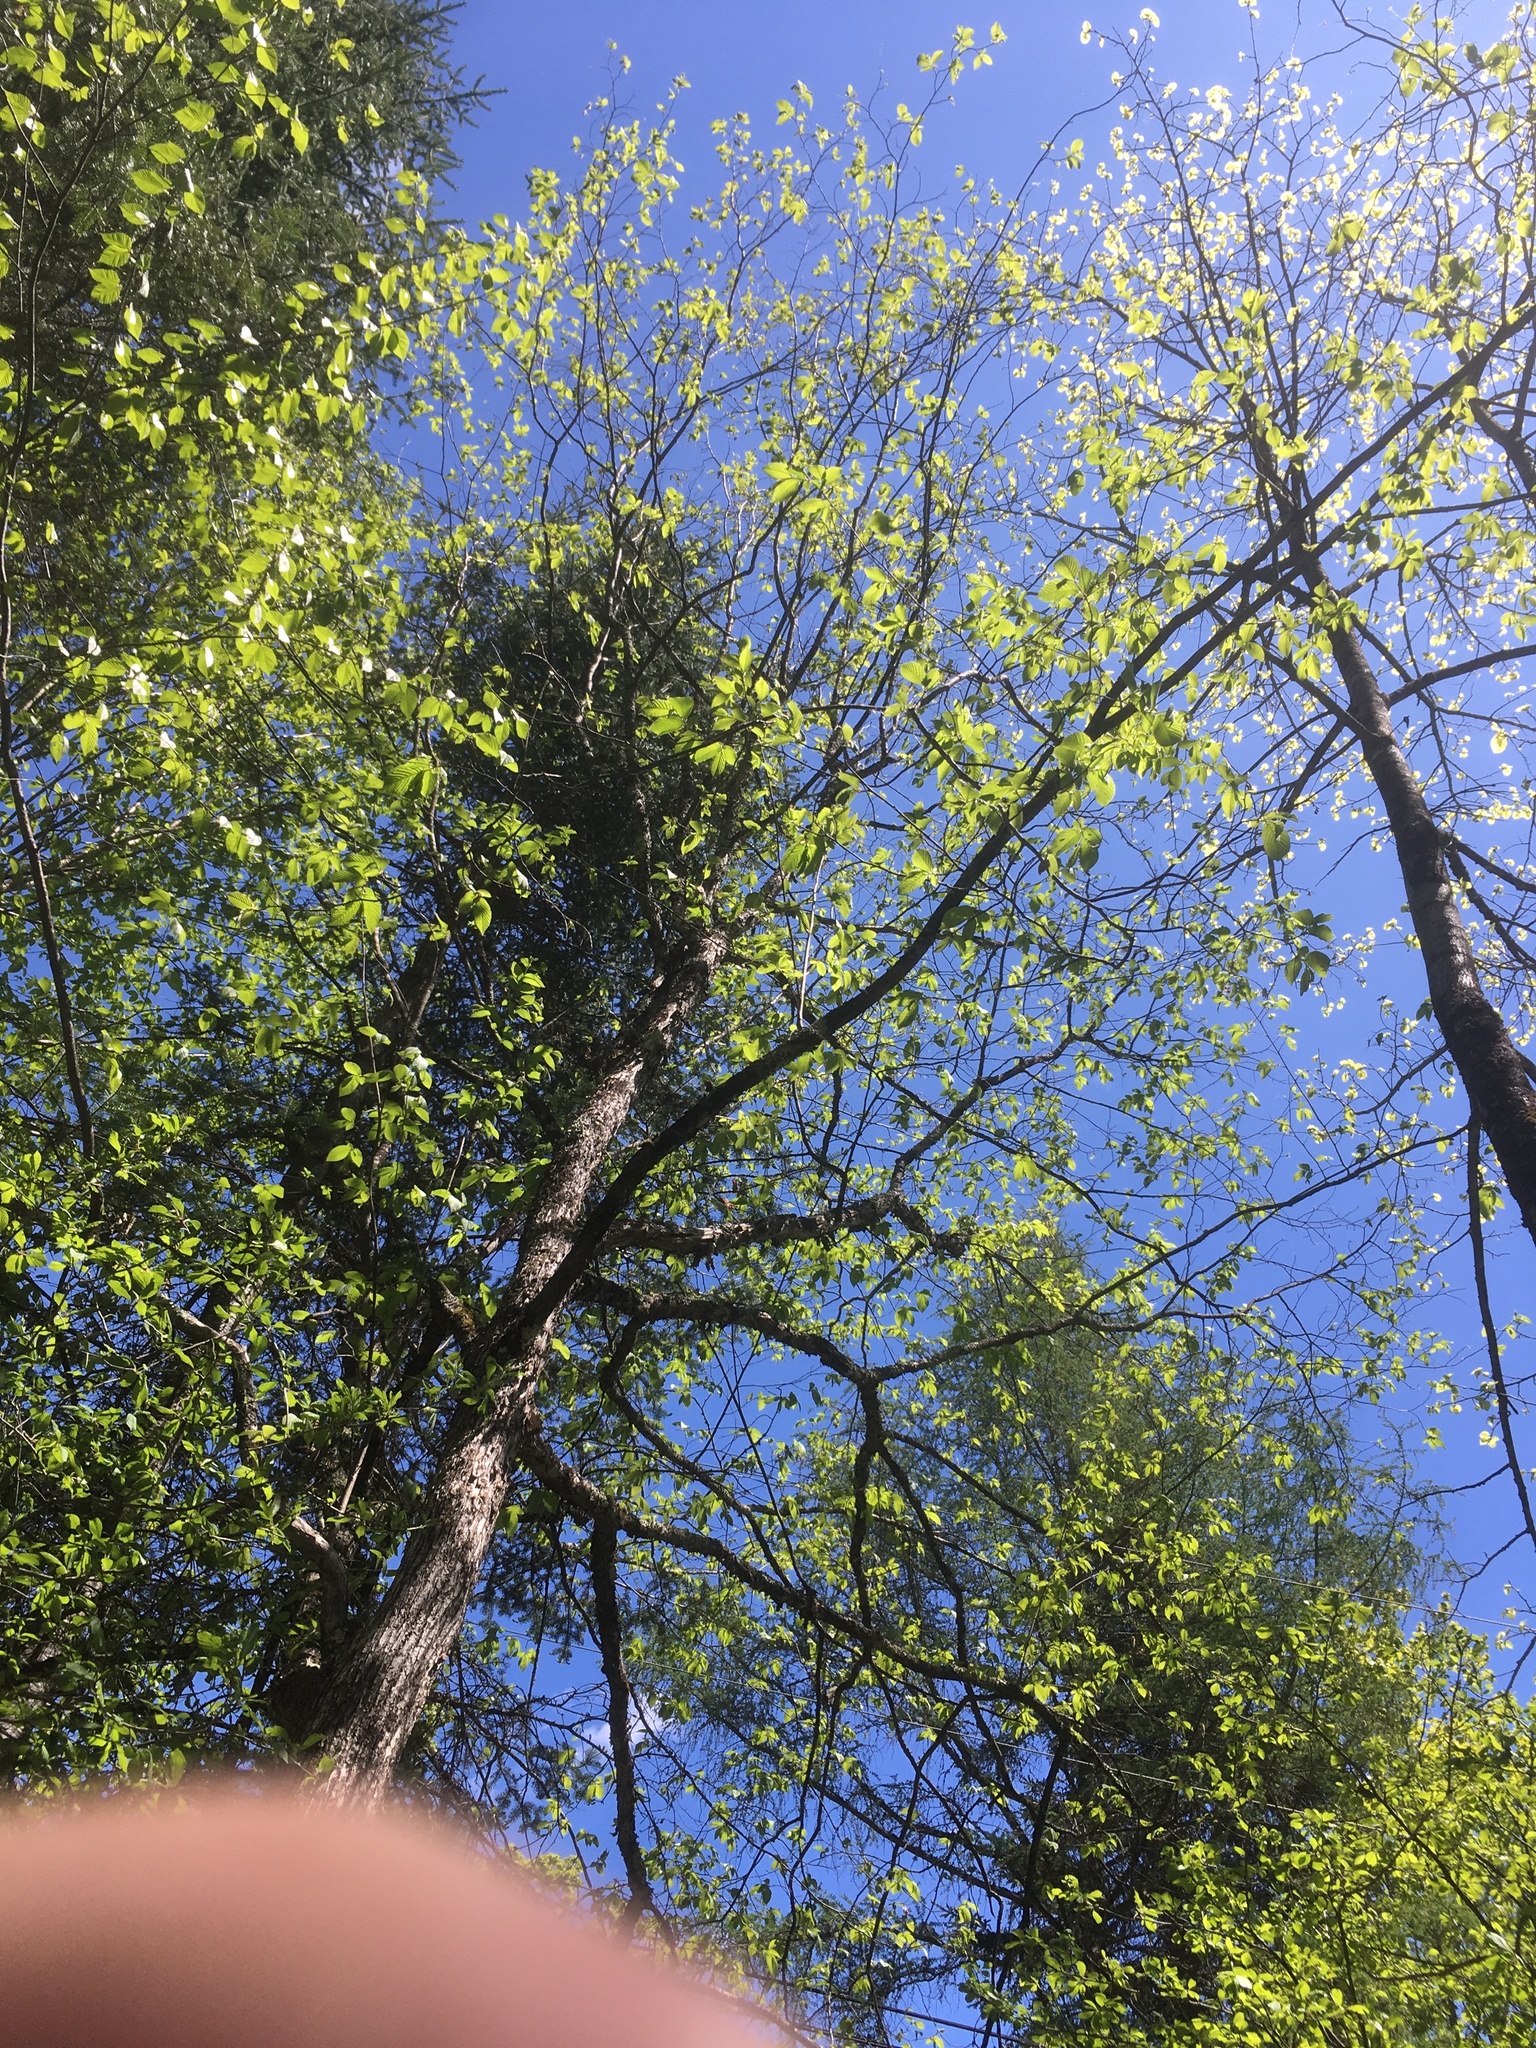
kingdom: Plantae
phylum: Tracheophyta
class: Magnoliopsida
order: Fagales
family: Betulaceae
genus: Ostrya
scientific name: Ostrya virginiana
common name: Ironwood
